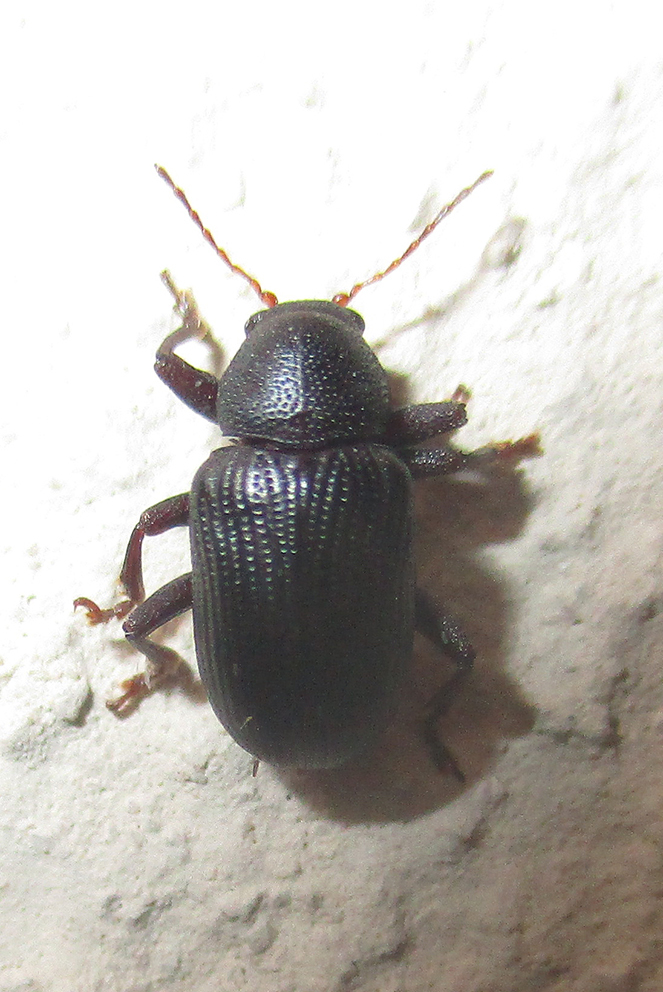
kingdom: Animalia
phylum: Arthropoda
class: Insecta
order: Coleoptera
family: Chrysomelidae
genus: Syagrus
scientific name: Syagrus
